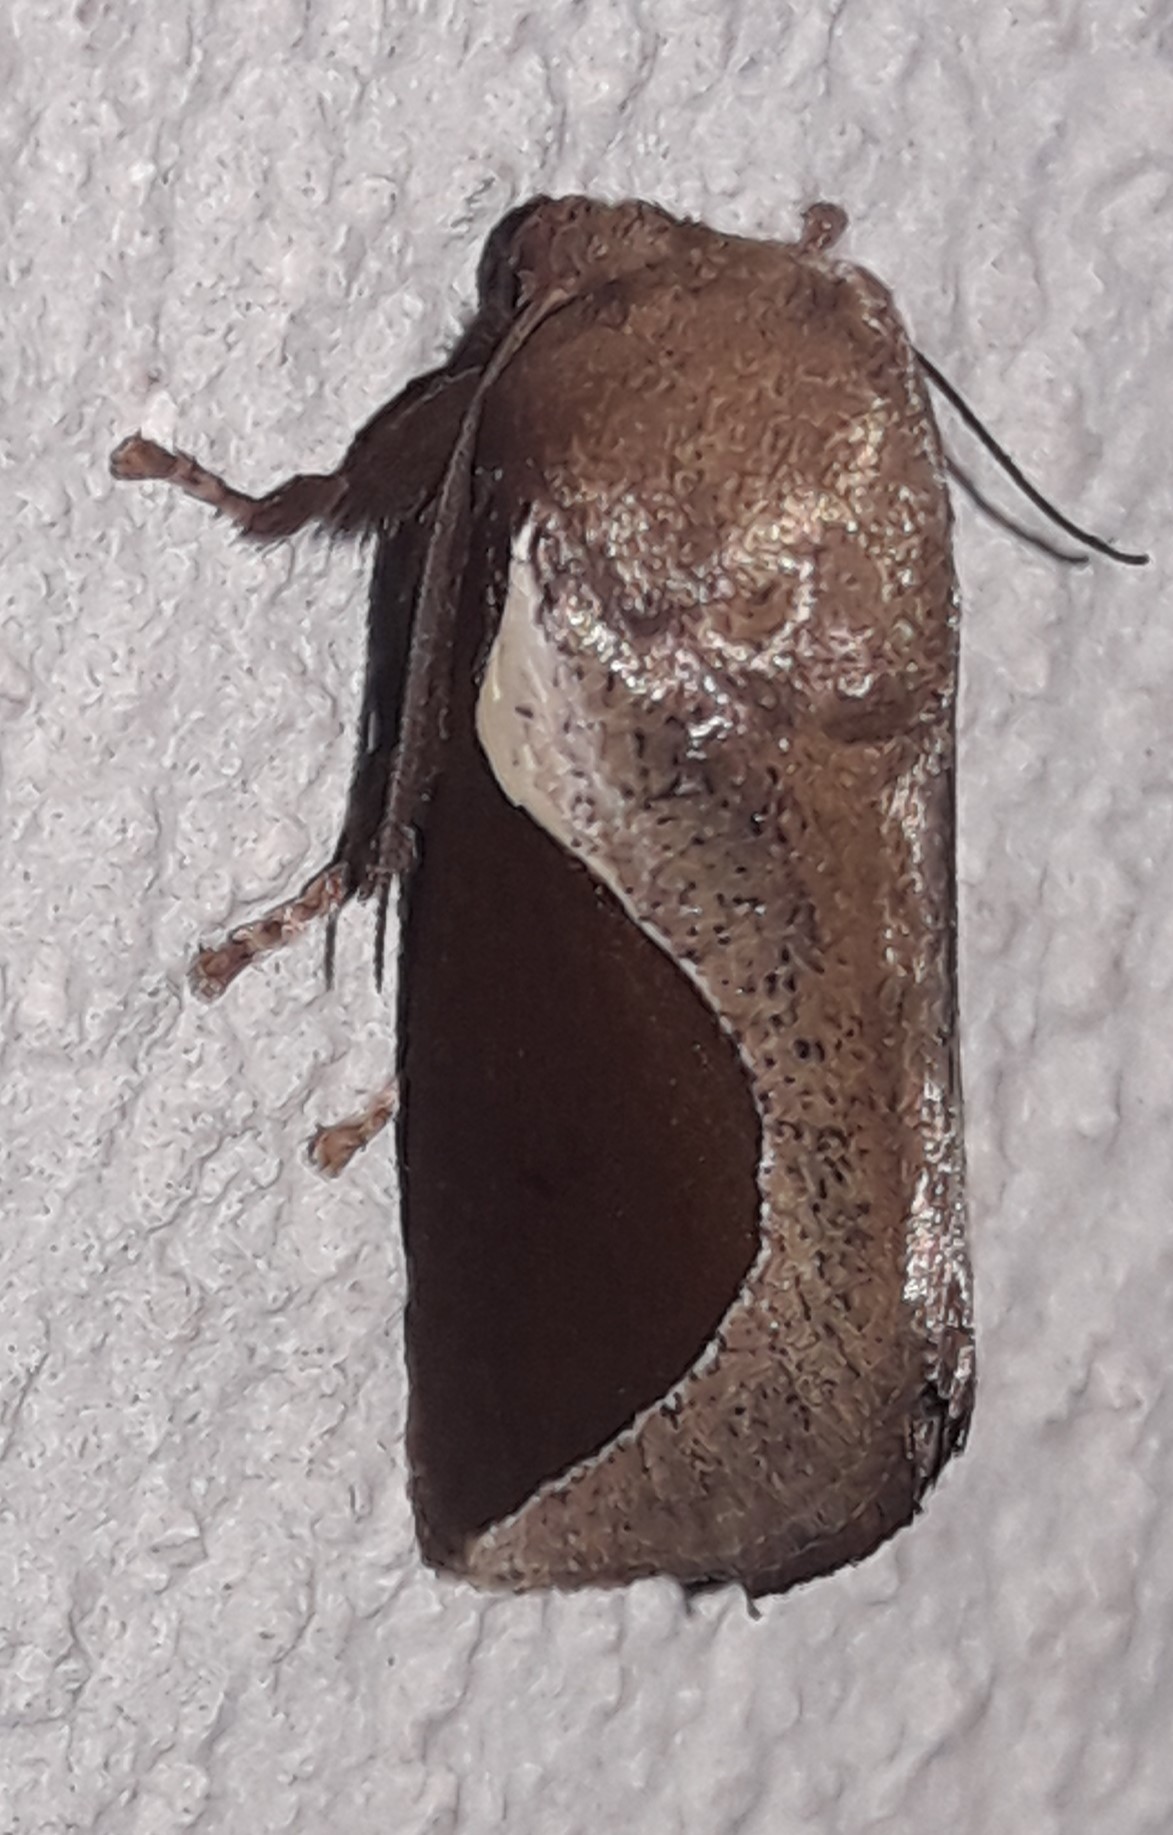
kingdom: Animalia
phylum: Arthropoda
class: Insecta
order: Lepidoptera
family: Limacodidae
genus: Prolimacodes
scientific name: Prolimacodes badia
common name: Skiff moth
